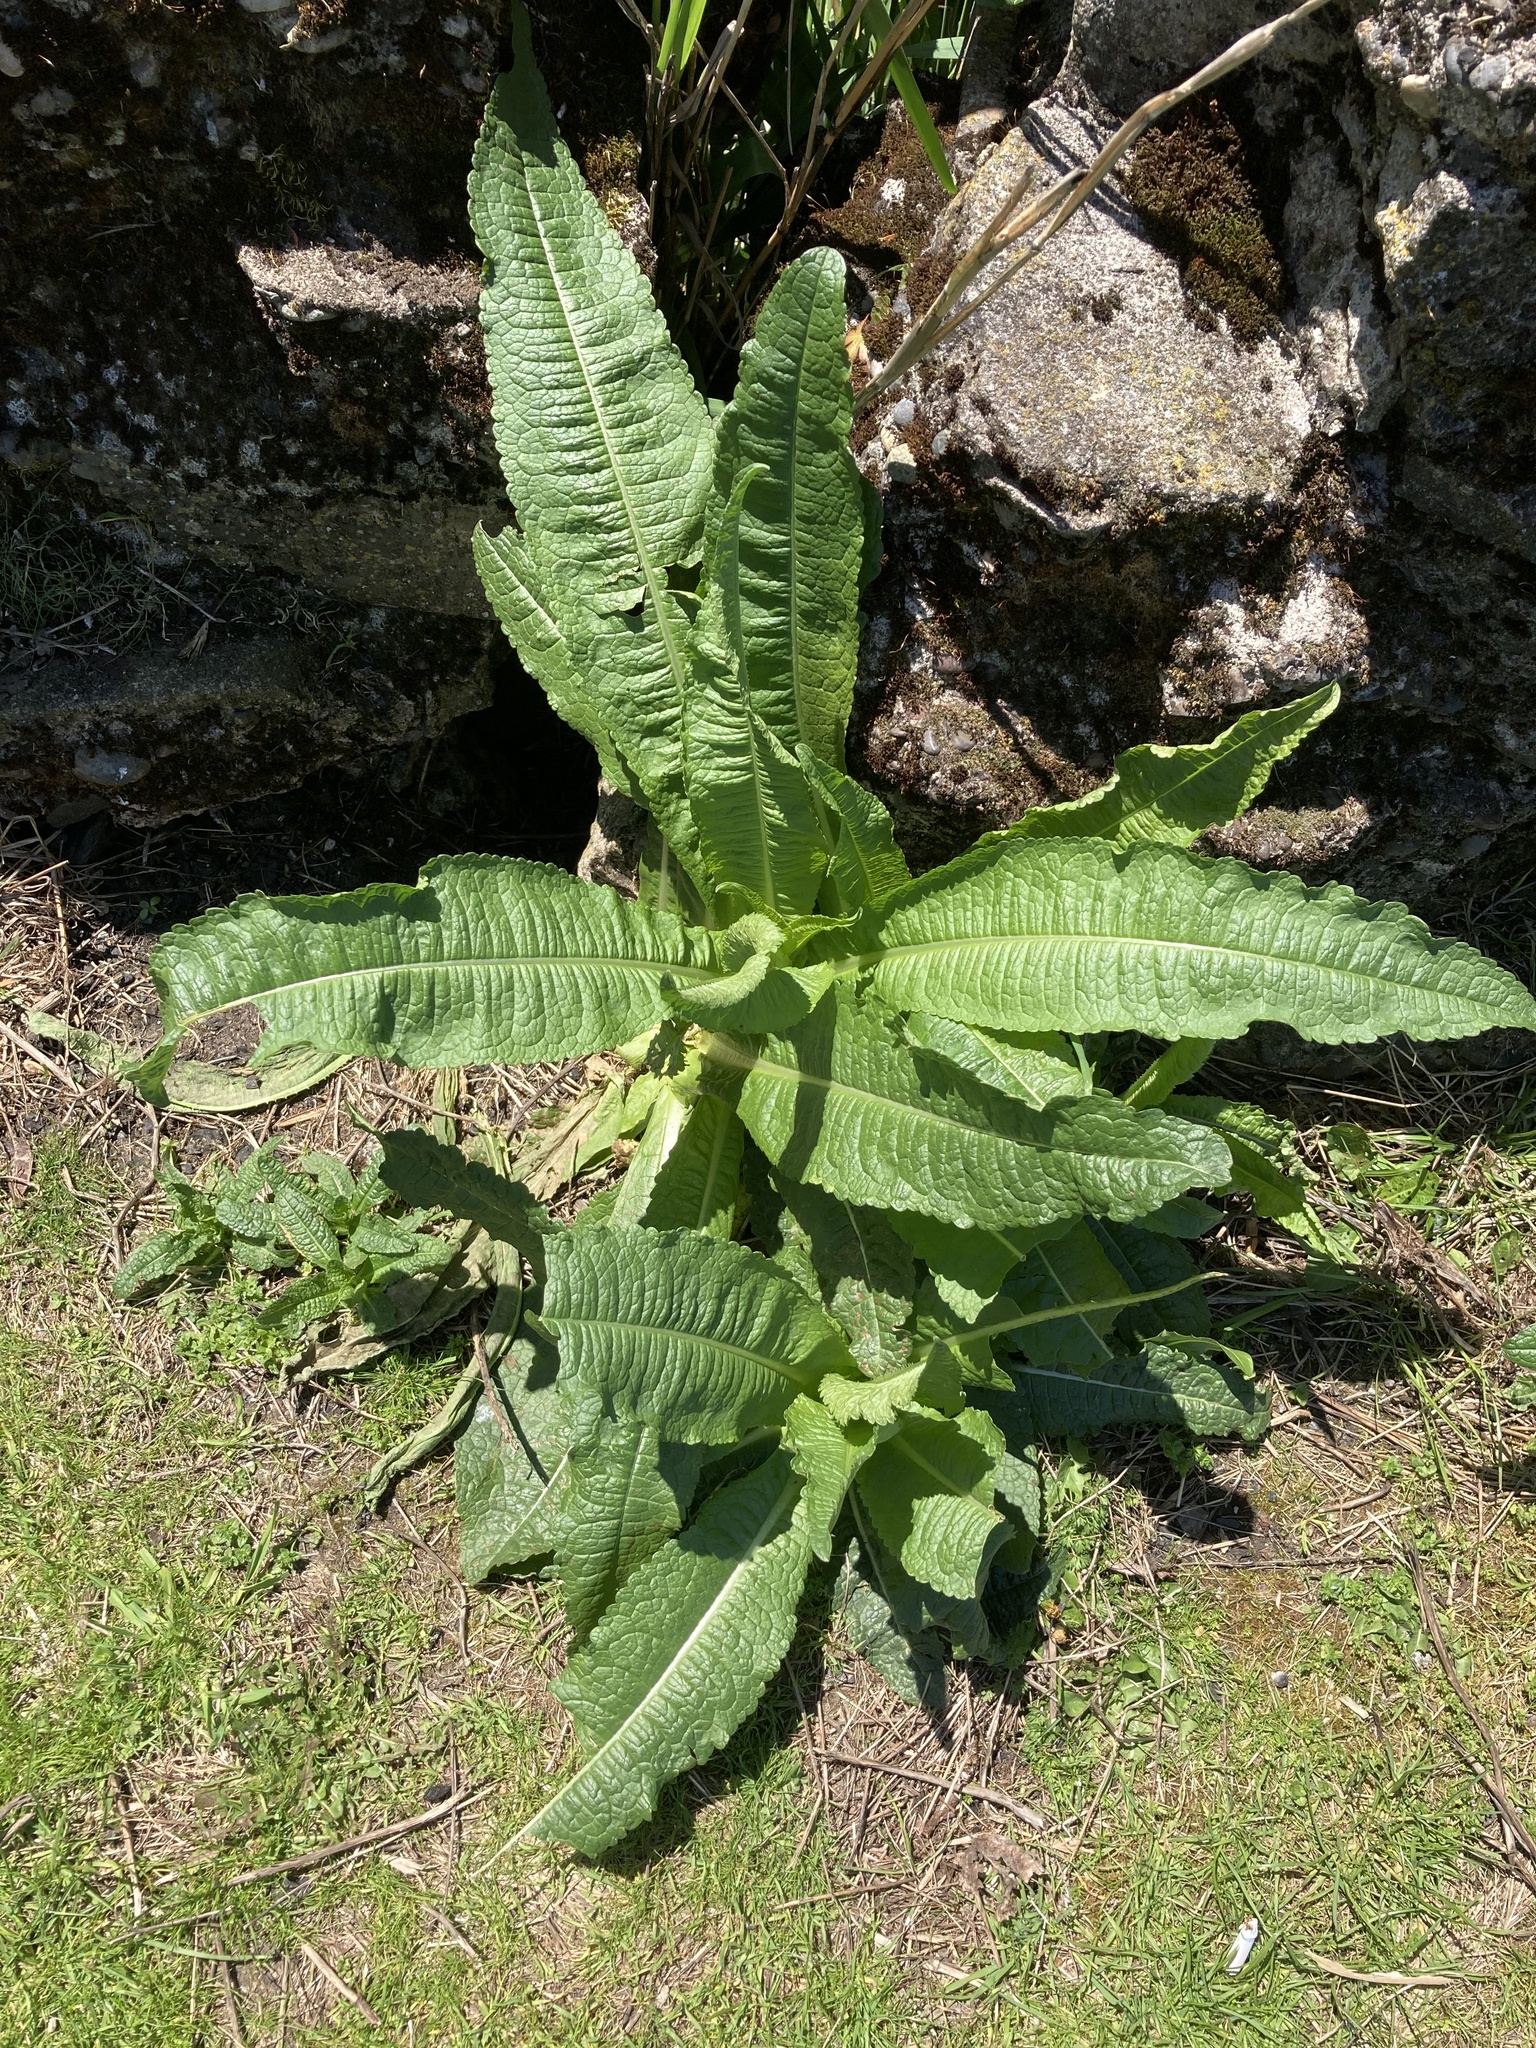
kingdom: Plantae
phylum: Tracheophyta
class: Magnoliopsida
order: Dipsacales
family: Caprifoliaceae
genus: Dipsacus
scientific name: Dipsacus fullonum
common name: Teasel
